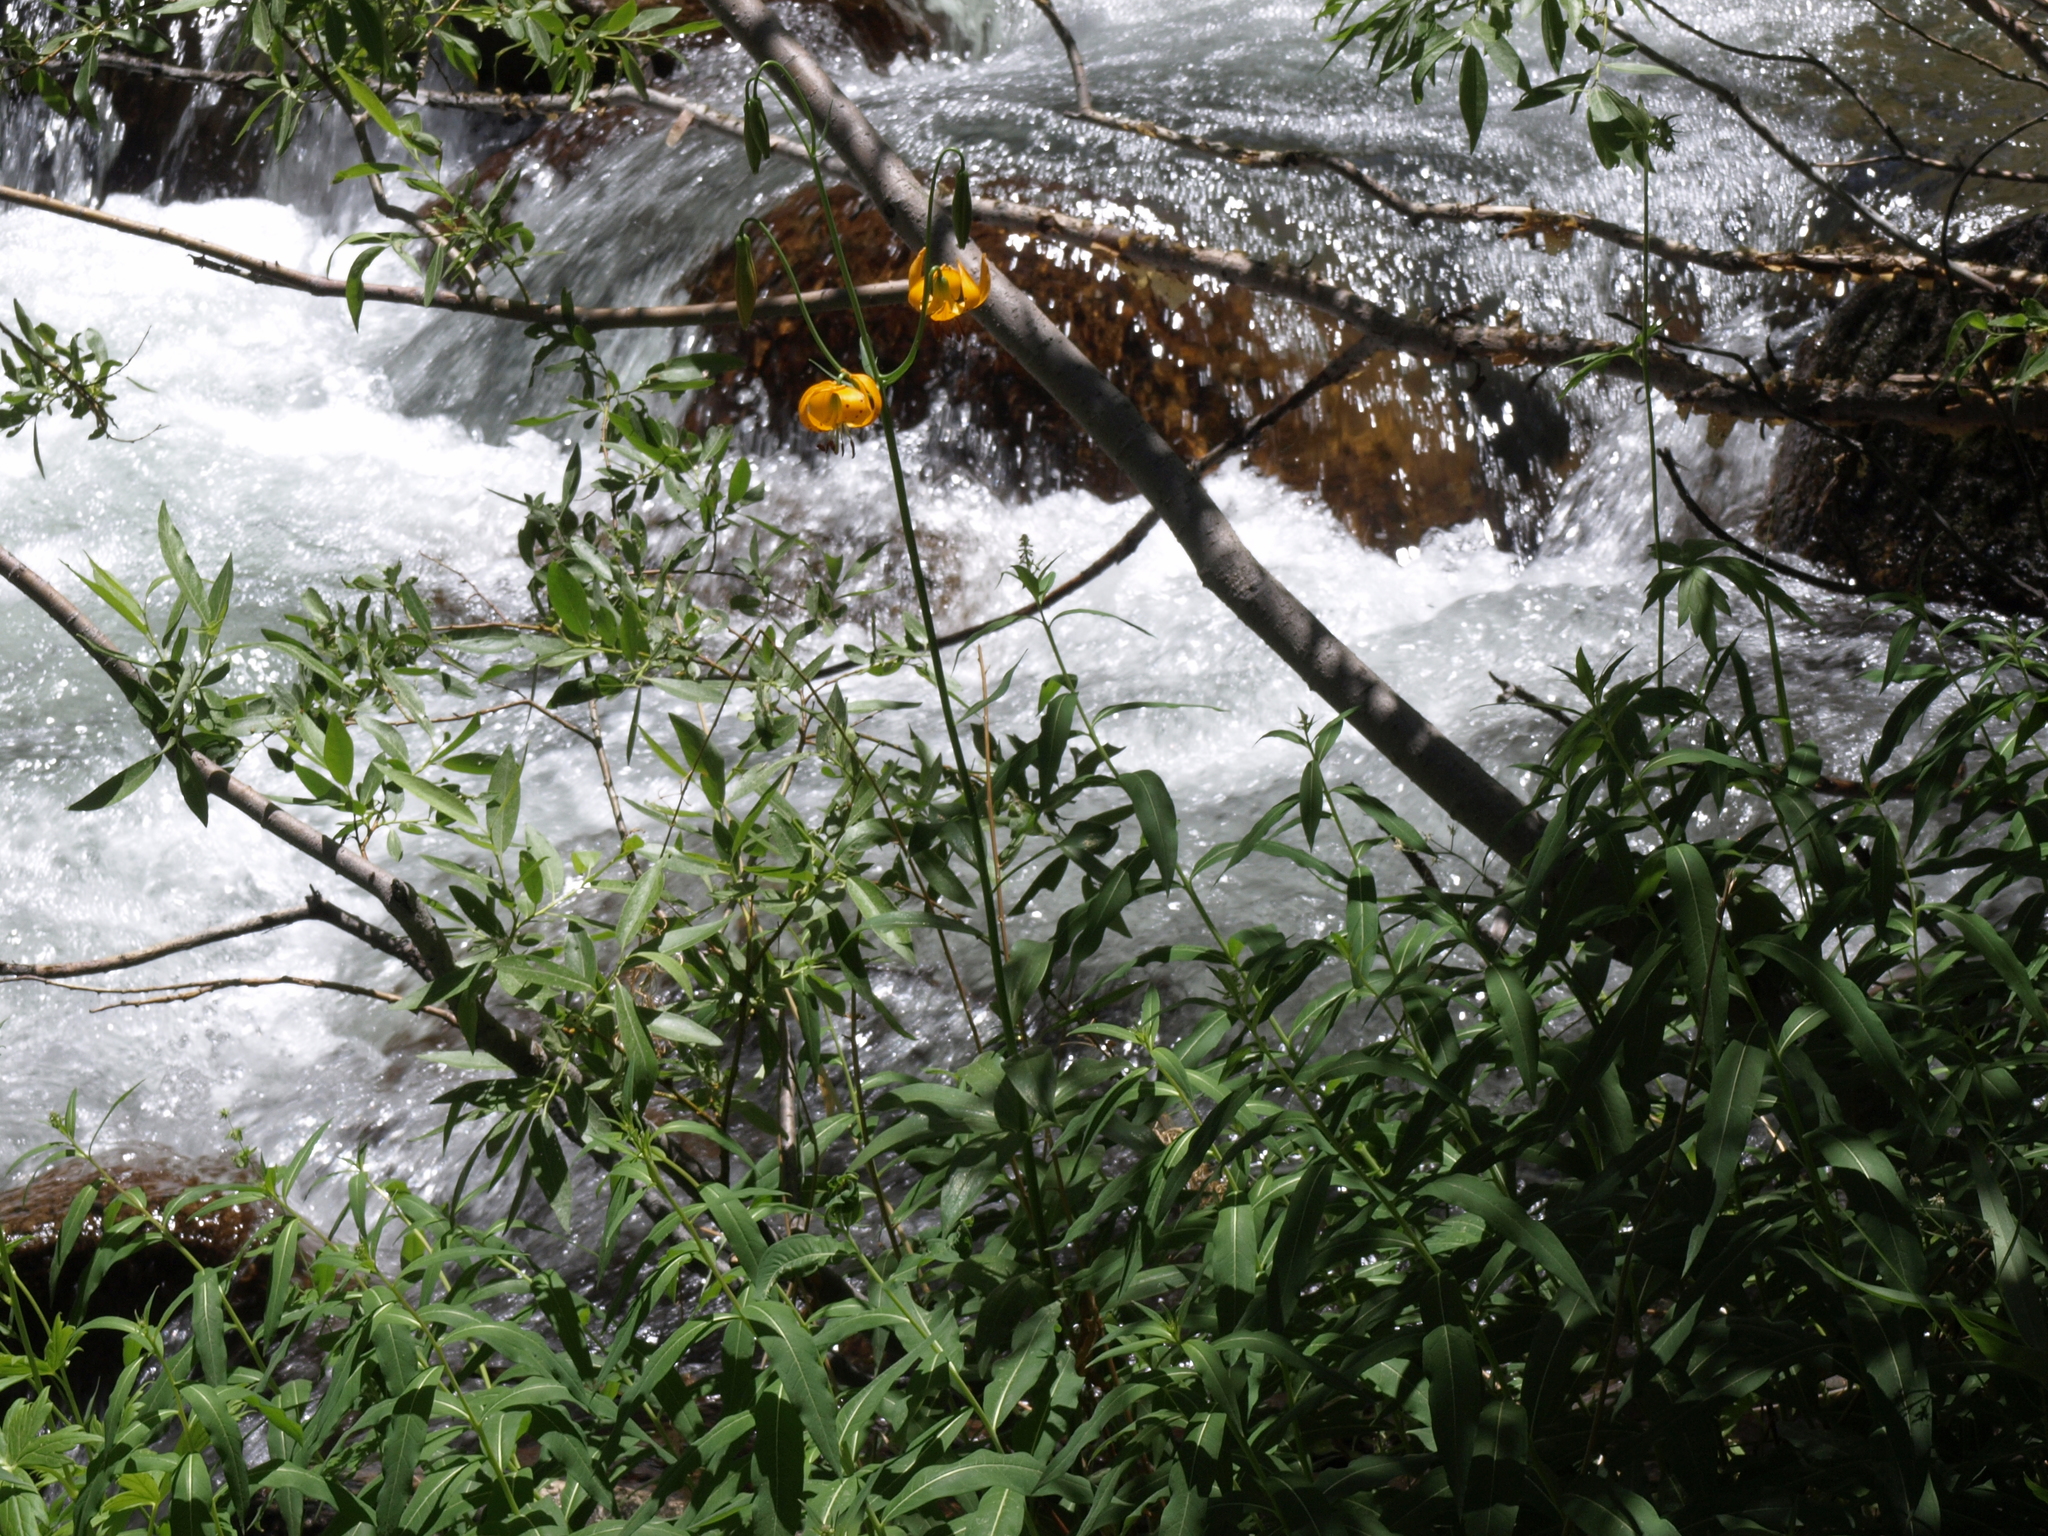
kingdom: Plantae
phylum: Tracheophyta
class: Liliopsida
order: Liliales
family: Liliaceae
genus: Lilium
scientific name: Lilium kelleyanum
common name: Kelley's lily
